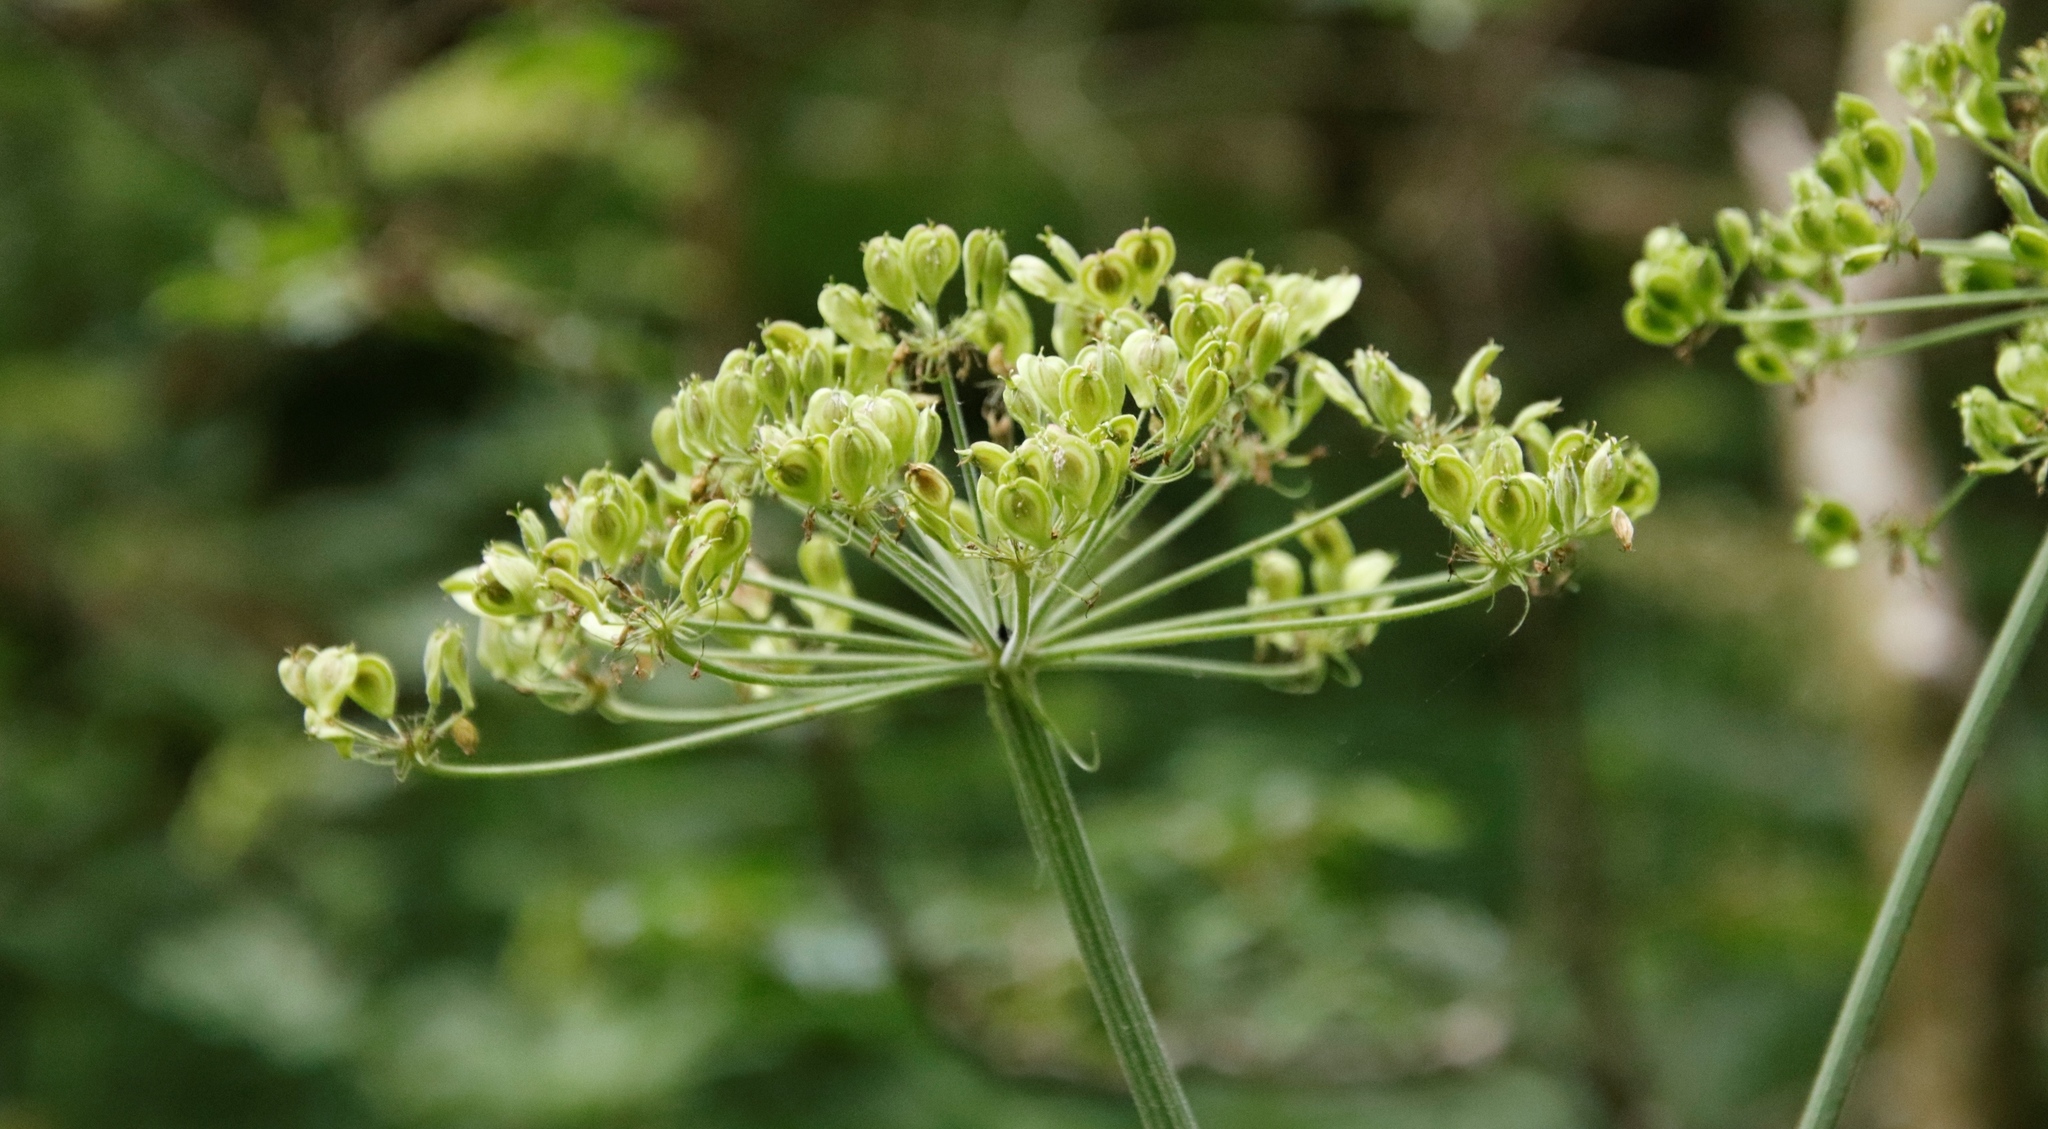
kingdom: Plantae
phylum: Tracheophyta
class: Magnoliopsida
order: Apiales
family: Apiaceae
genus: Heracleum
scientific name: Heracleum sphondylium
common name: Hogweed
